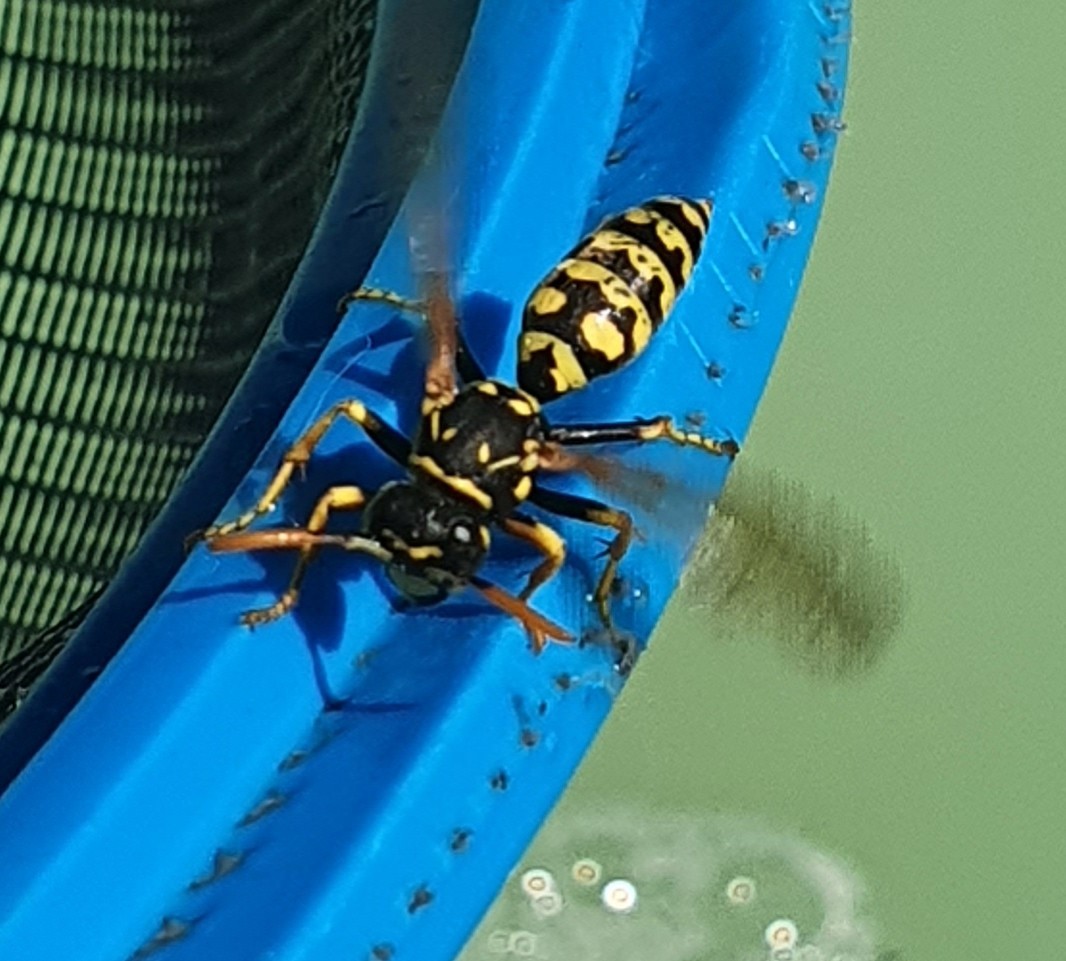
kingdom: Animalia
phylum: Arthropoda
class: Insecta
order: Hymenoptera
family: Eumenidae
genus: Polistes
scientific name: Polistes dominula
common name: Paper wasp
